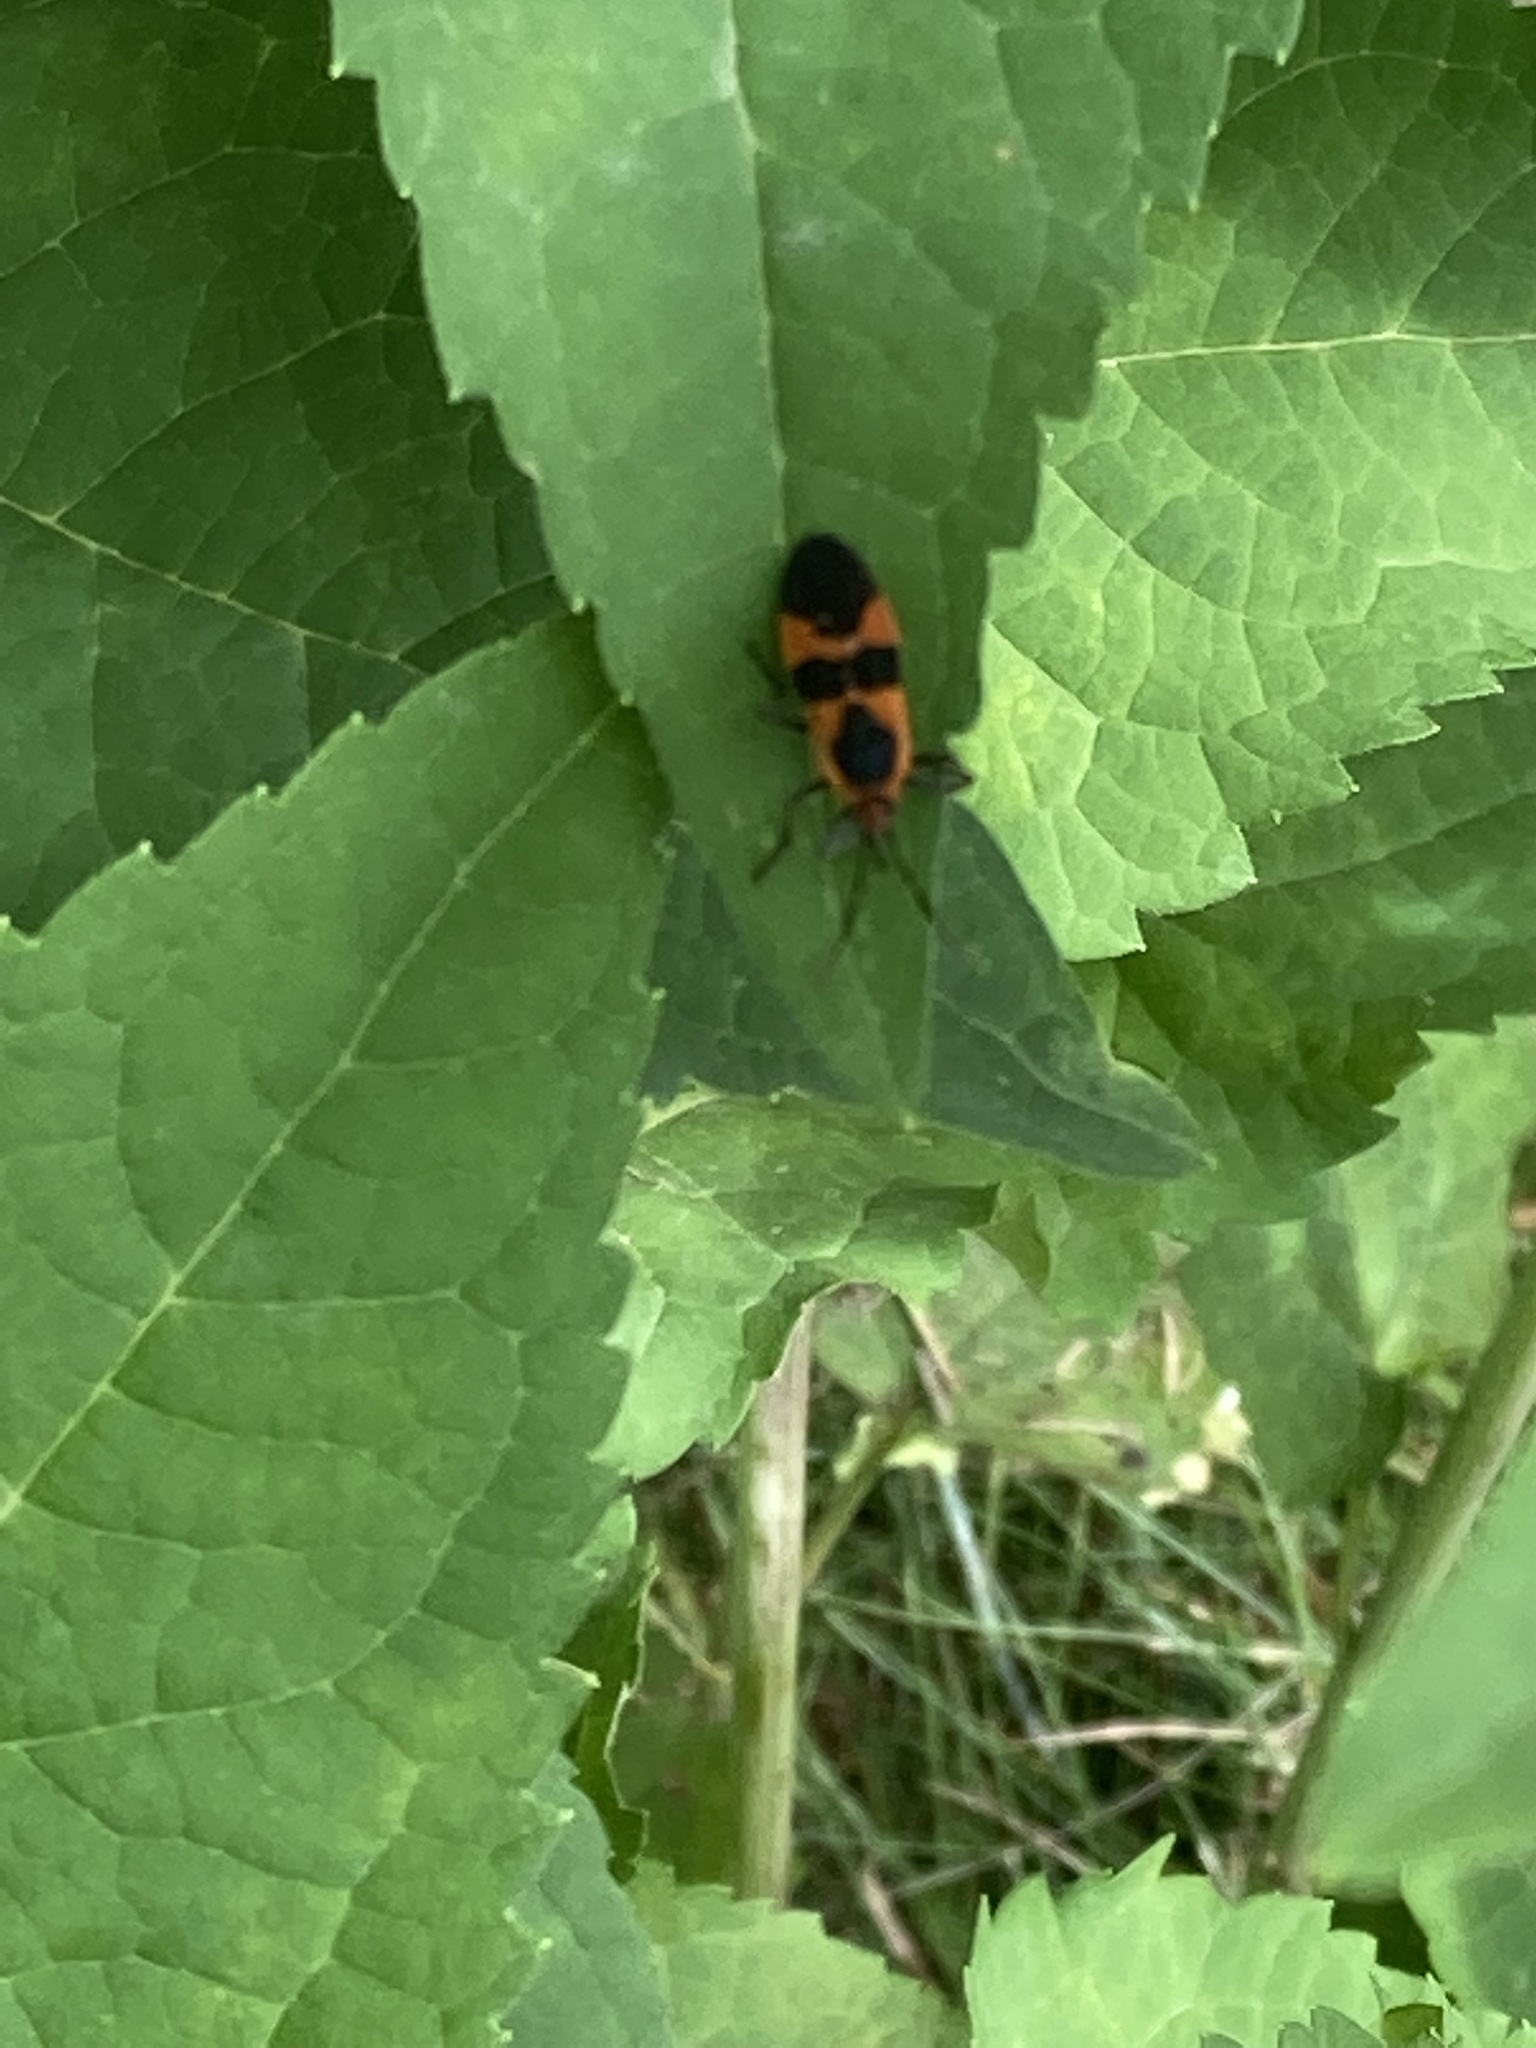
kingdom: Animalia
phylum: Arthropoda
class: Insecta
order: Hemiptera
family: Lygaeidae
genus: Oncopeltus
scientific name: Oncopeltus fasciatus
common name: Large milkweed bug
